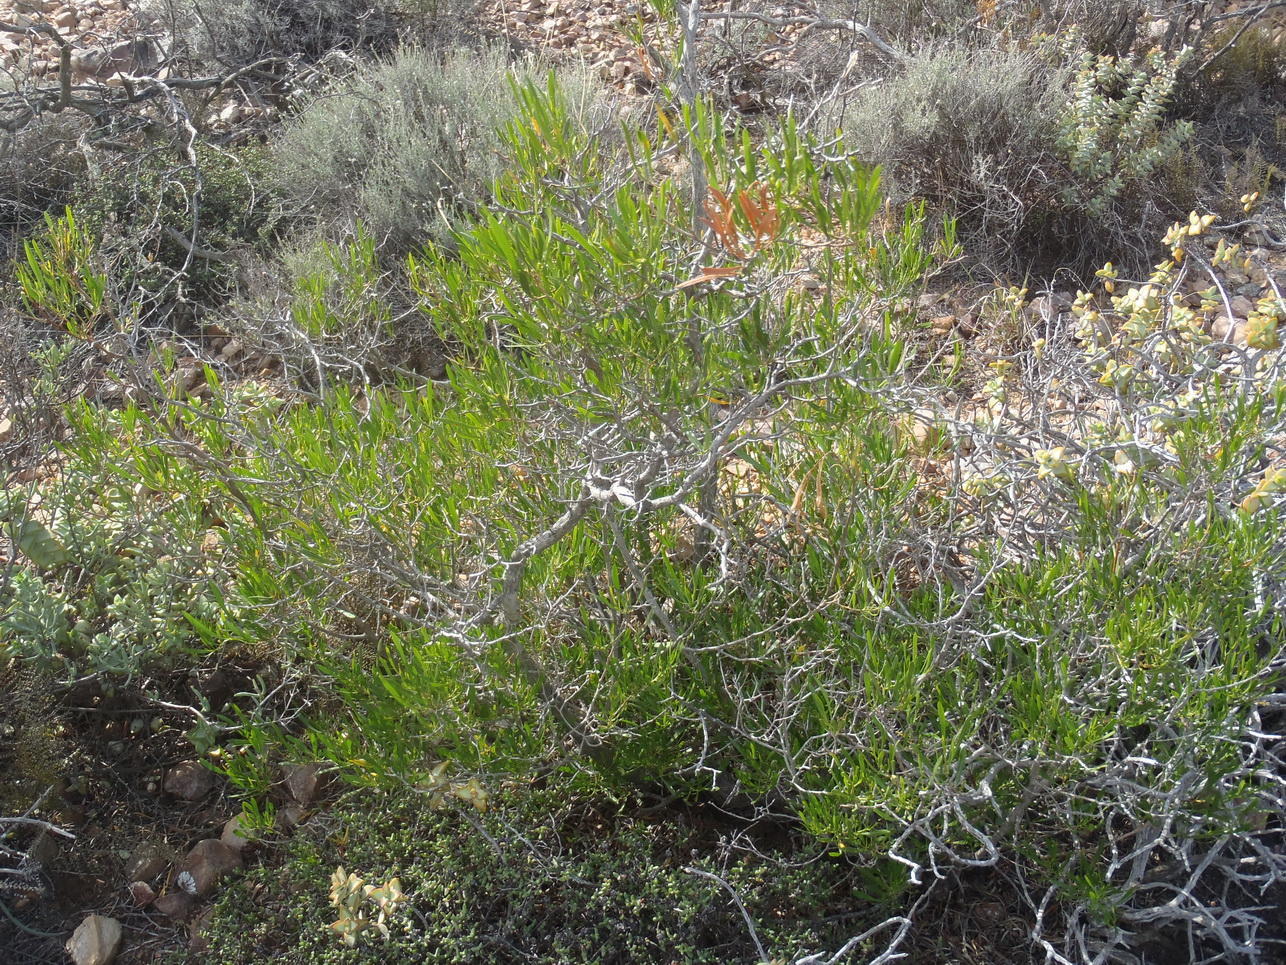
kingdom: Plantae
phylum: Tracheophyta
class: Magnoliopsida
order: Sapindales
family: Sapindaceae
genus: Dodonaea
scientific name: Dodonaea viscosa
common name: Hopbush
